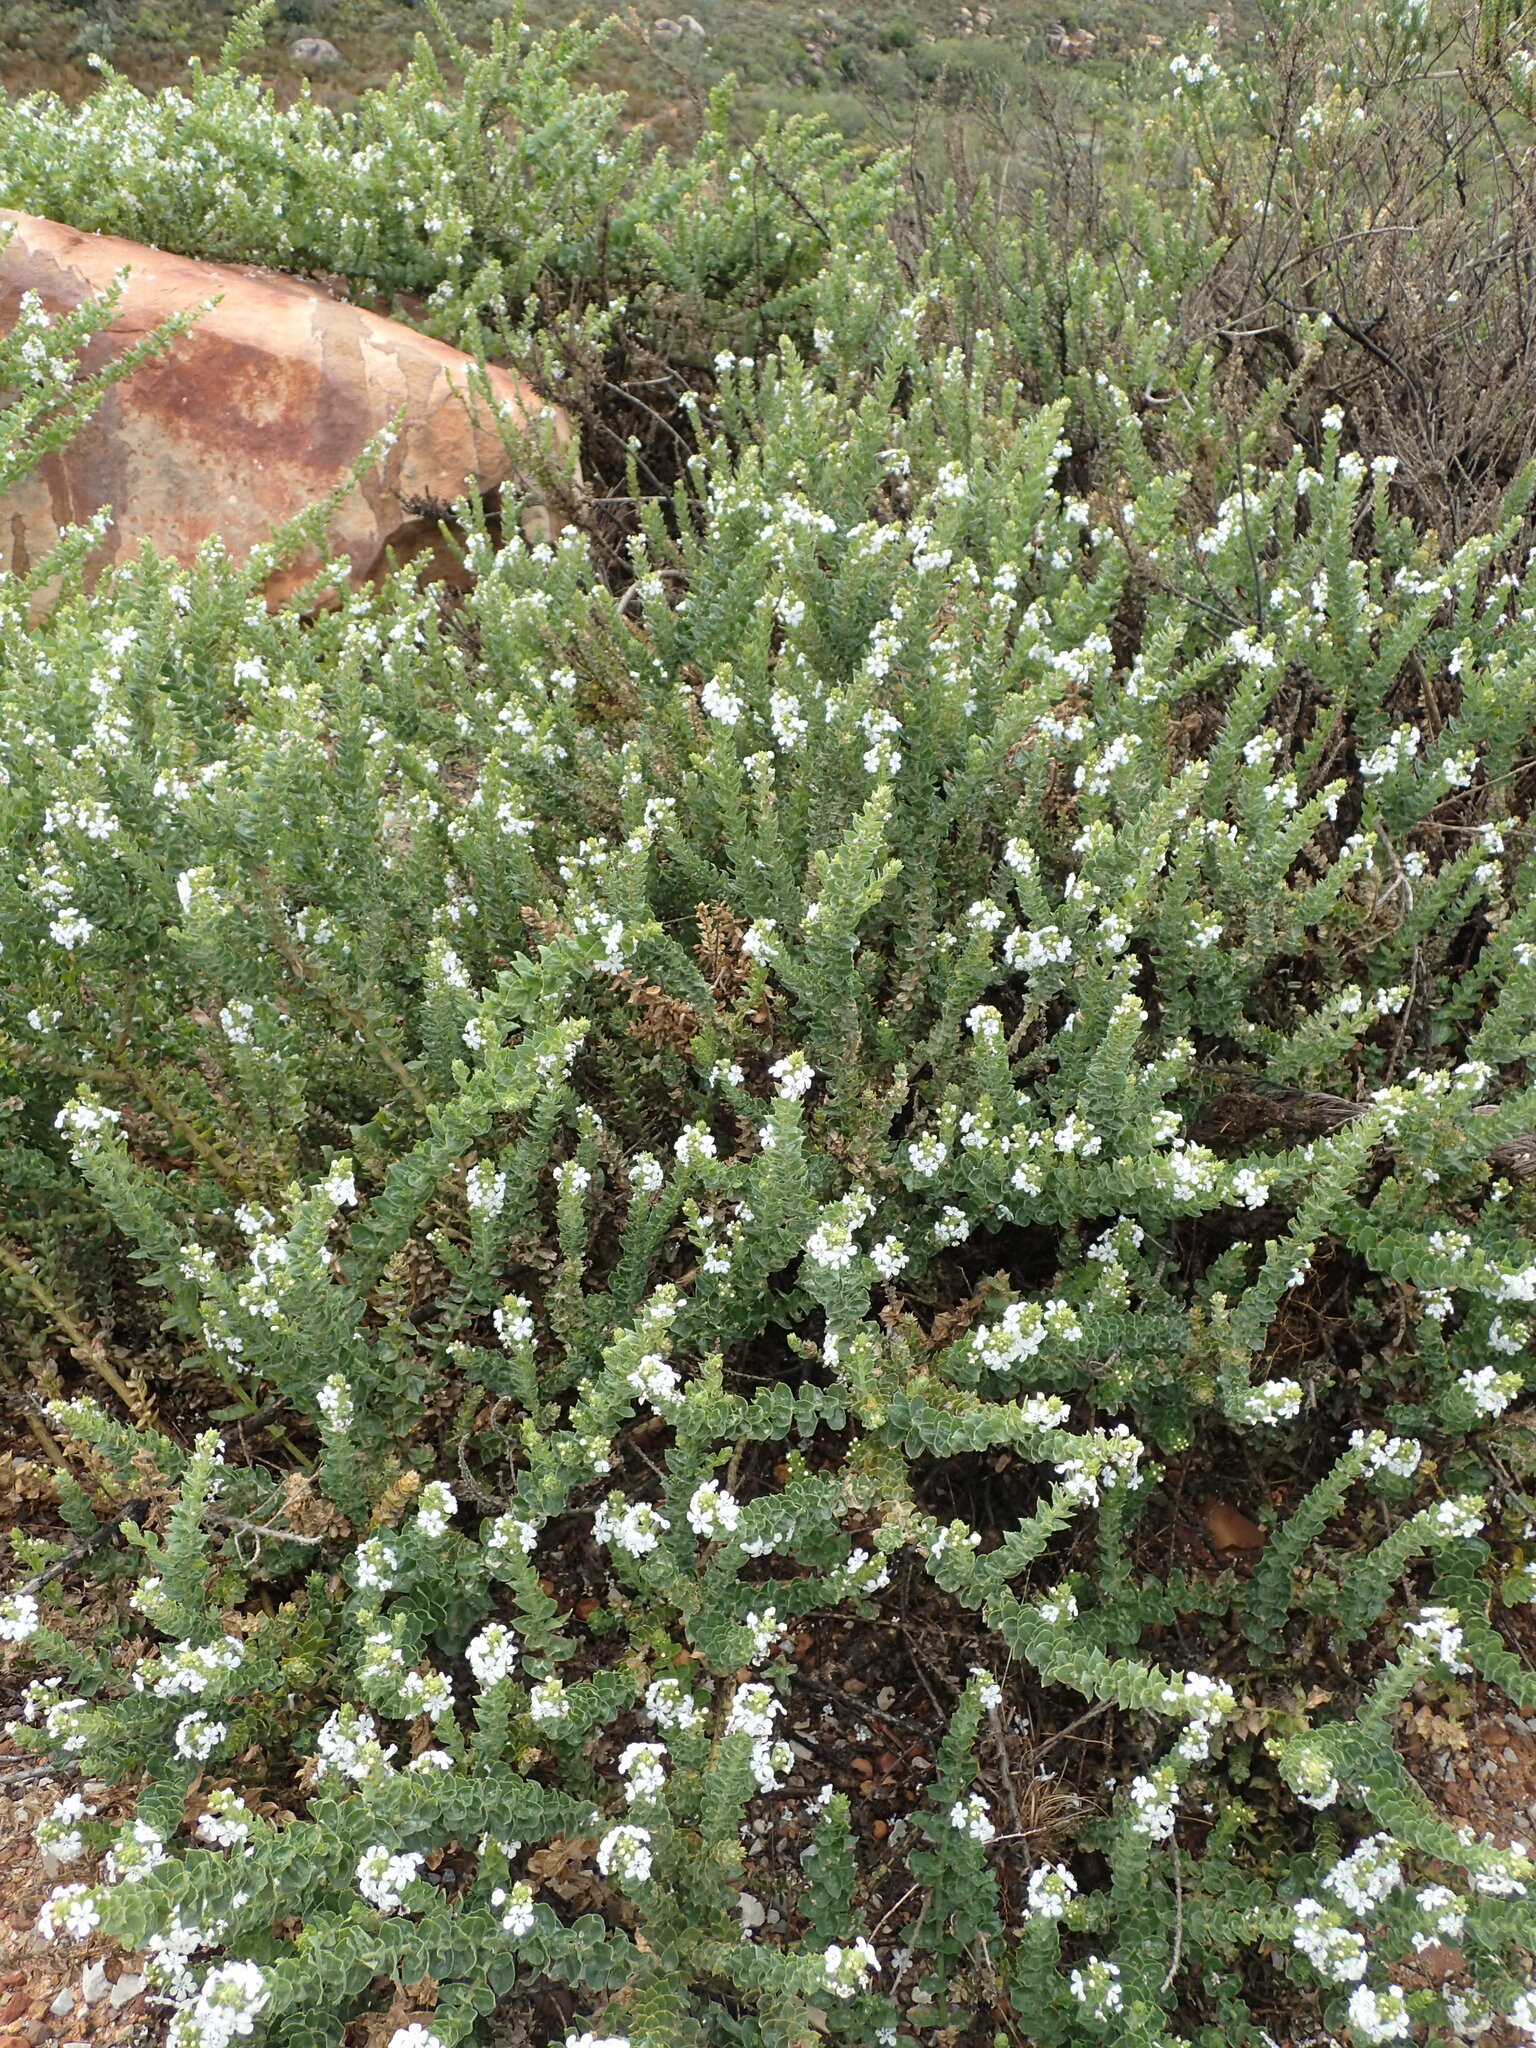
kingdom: Plantae
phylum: Tracheophyta
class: Magnoliopsida
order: Lamiales
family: Scrophulariaceae
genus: Oftia
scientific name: Oftia africana
